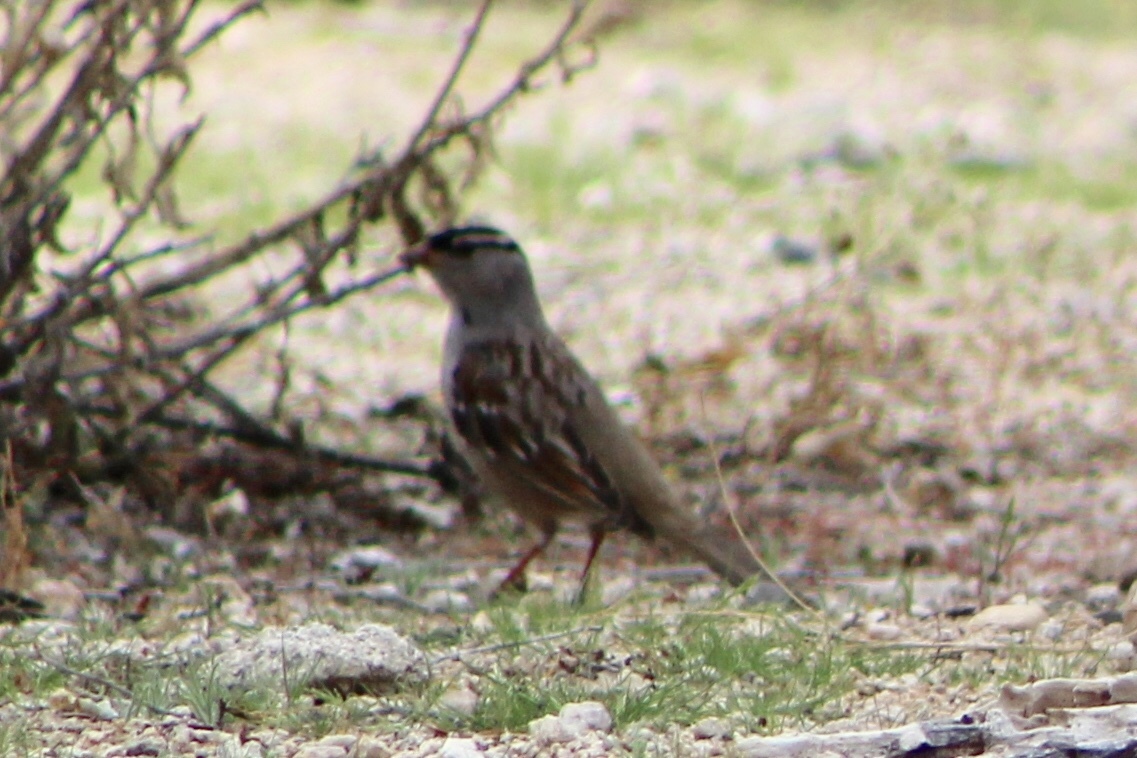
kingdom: Animalia
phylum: Chordata
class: Aves
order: Passeriformes
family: Passerellidae
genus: Zonotrichia
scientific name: Zonotrichia leucophrys
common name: White-crowned sparrow
